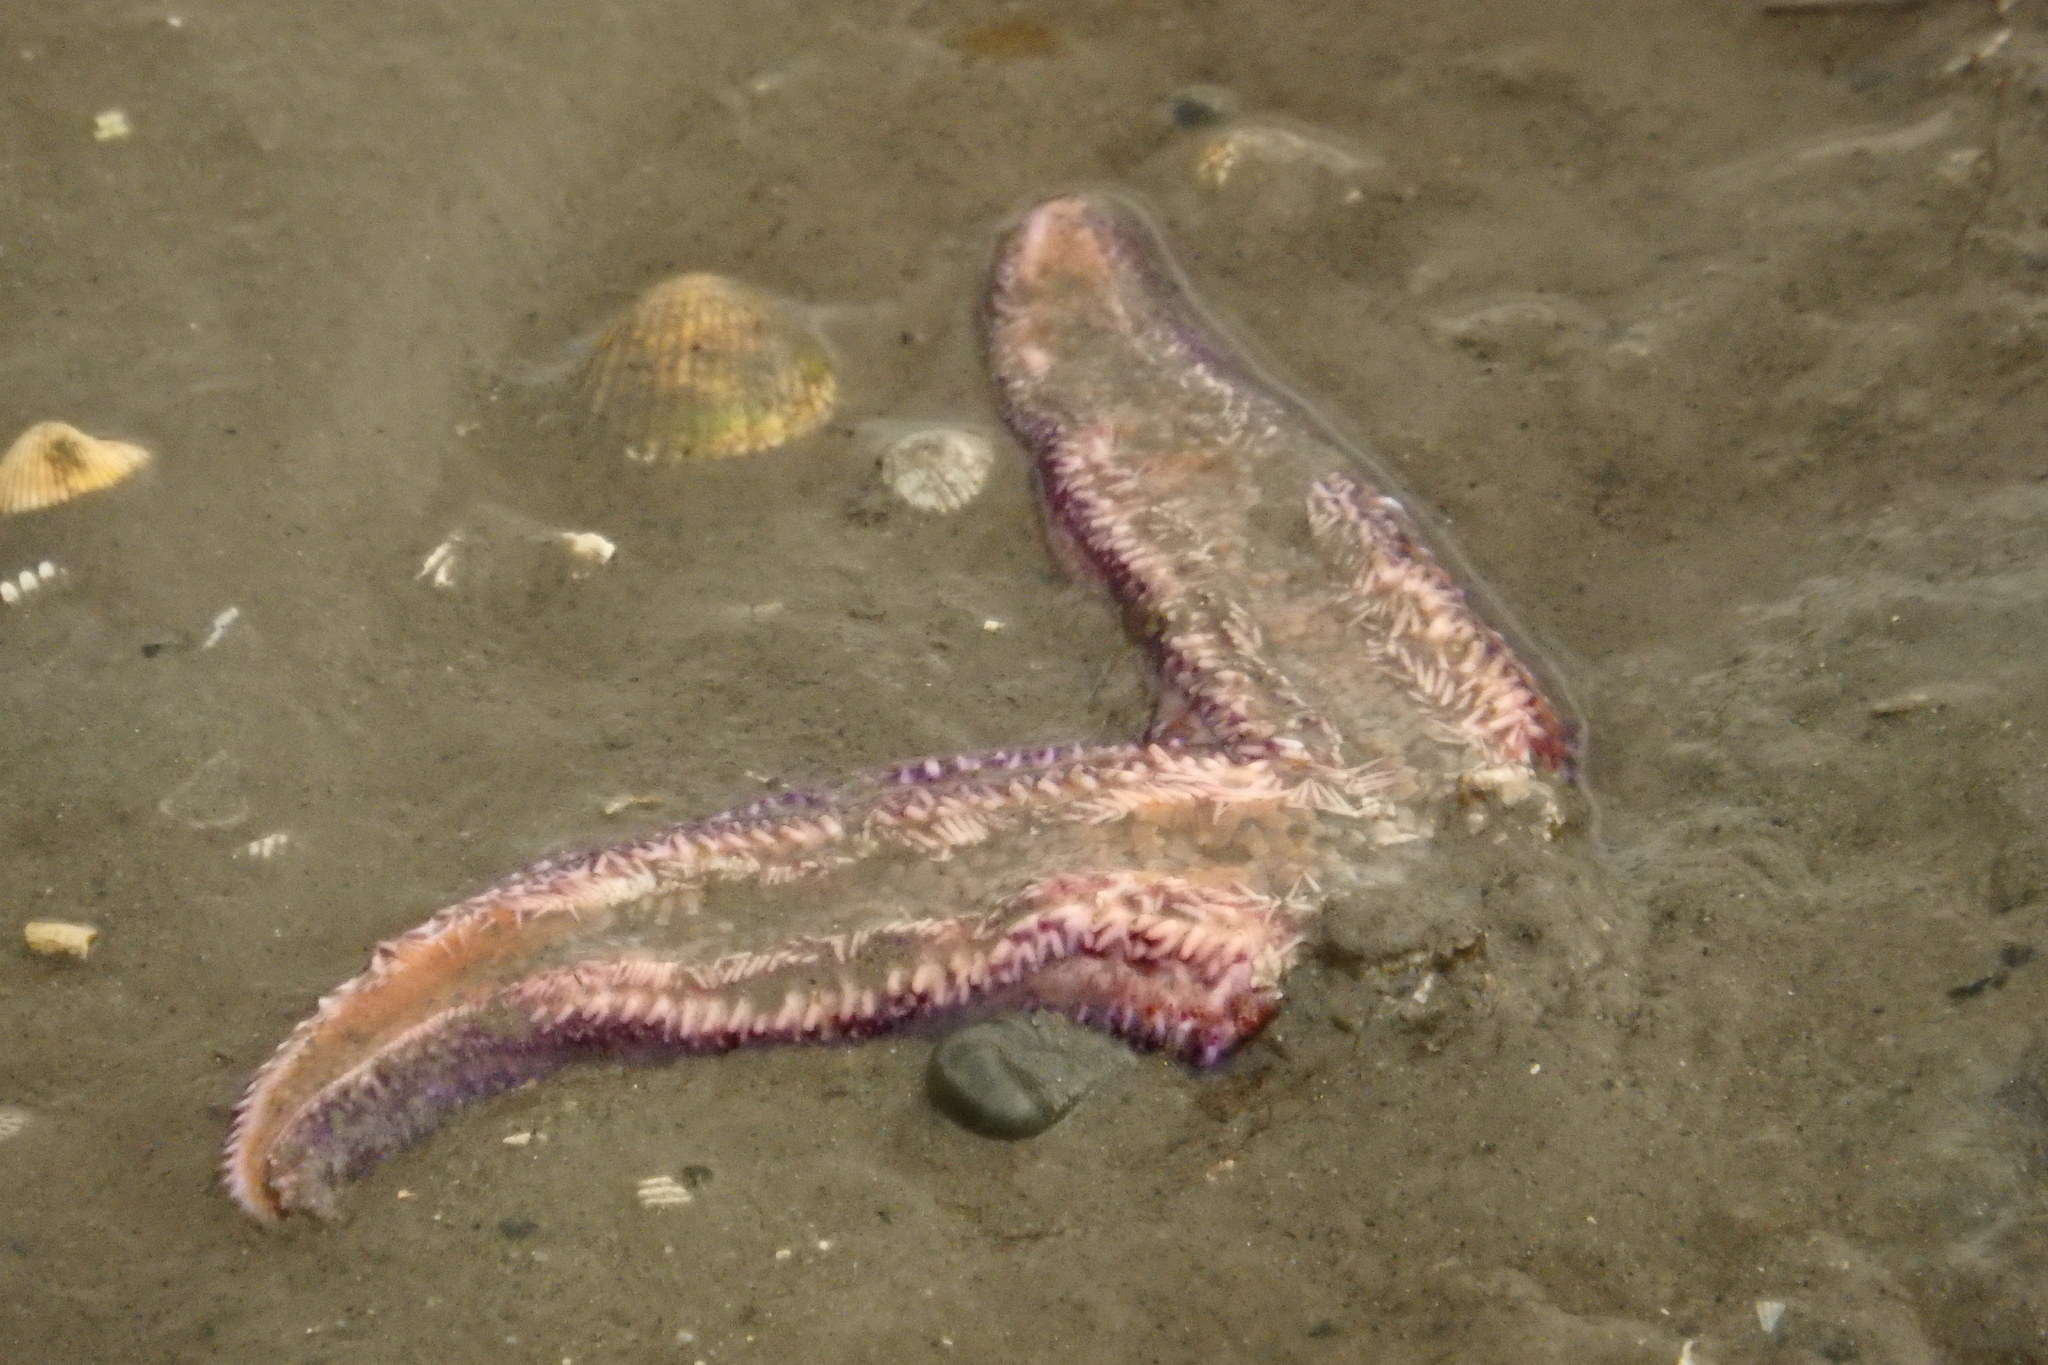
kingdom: Animalia
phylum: Echinodermata
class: Asteroidea
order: Forcipulatida
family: Asteriidae
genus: Asterias
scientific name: Asterias rubens
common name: Common starfish
